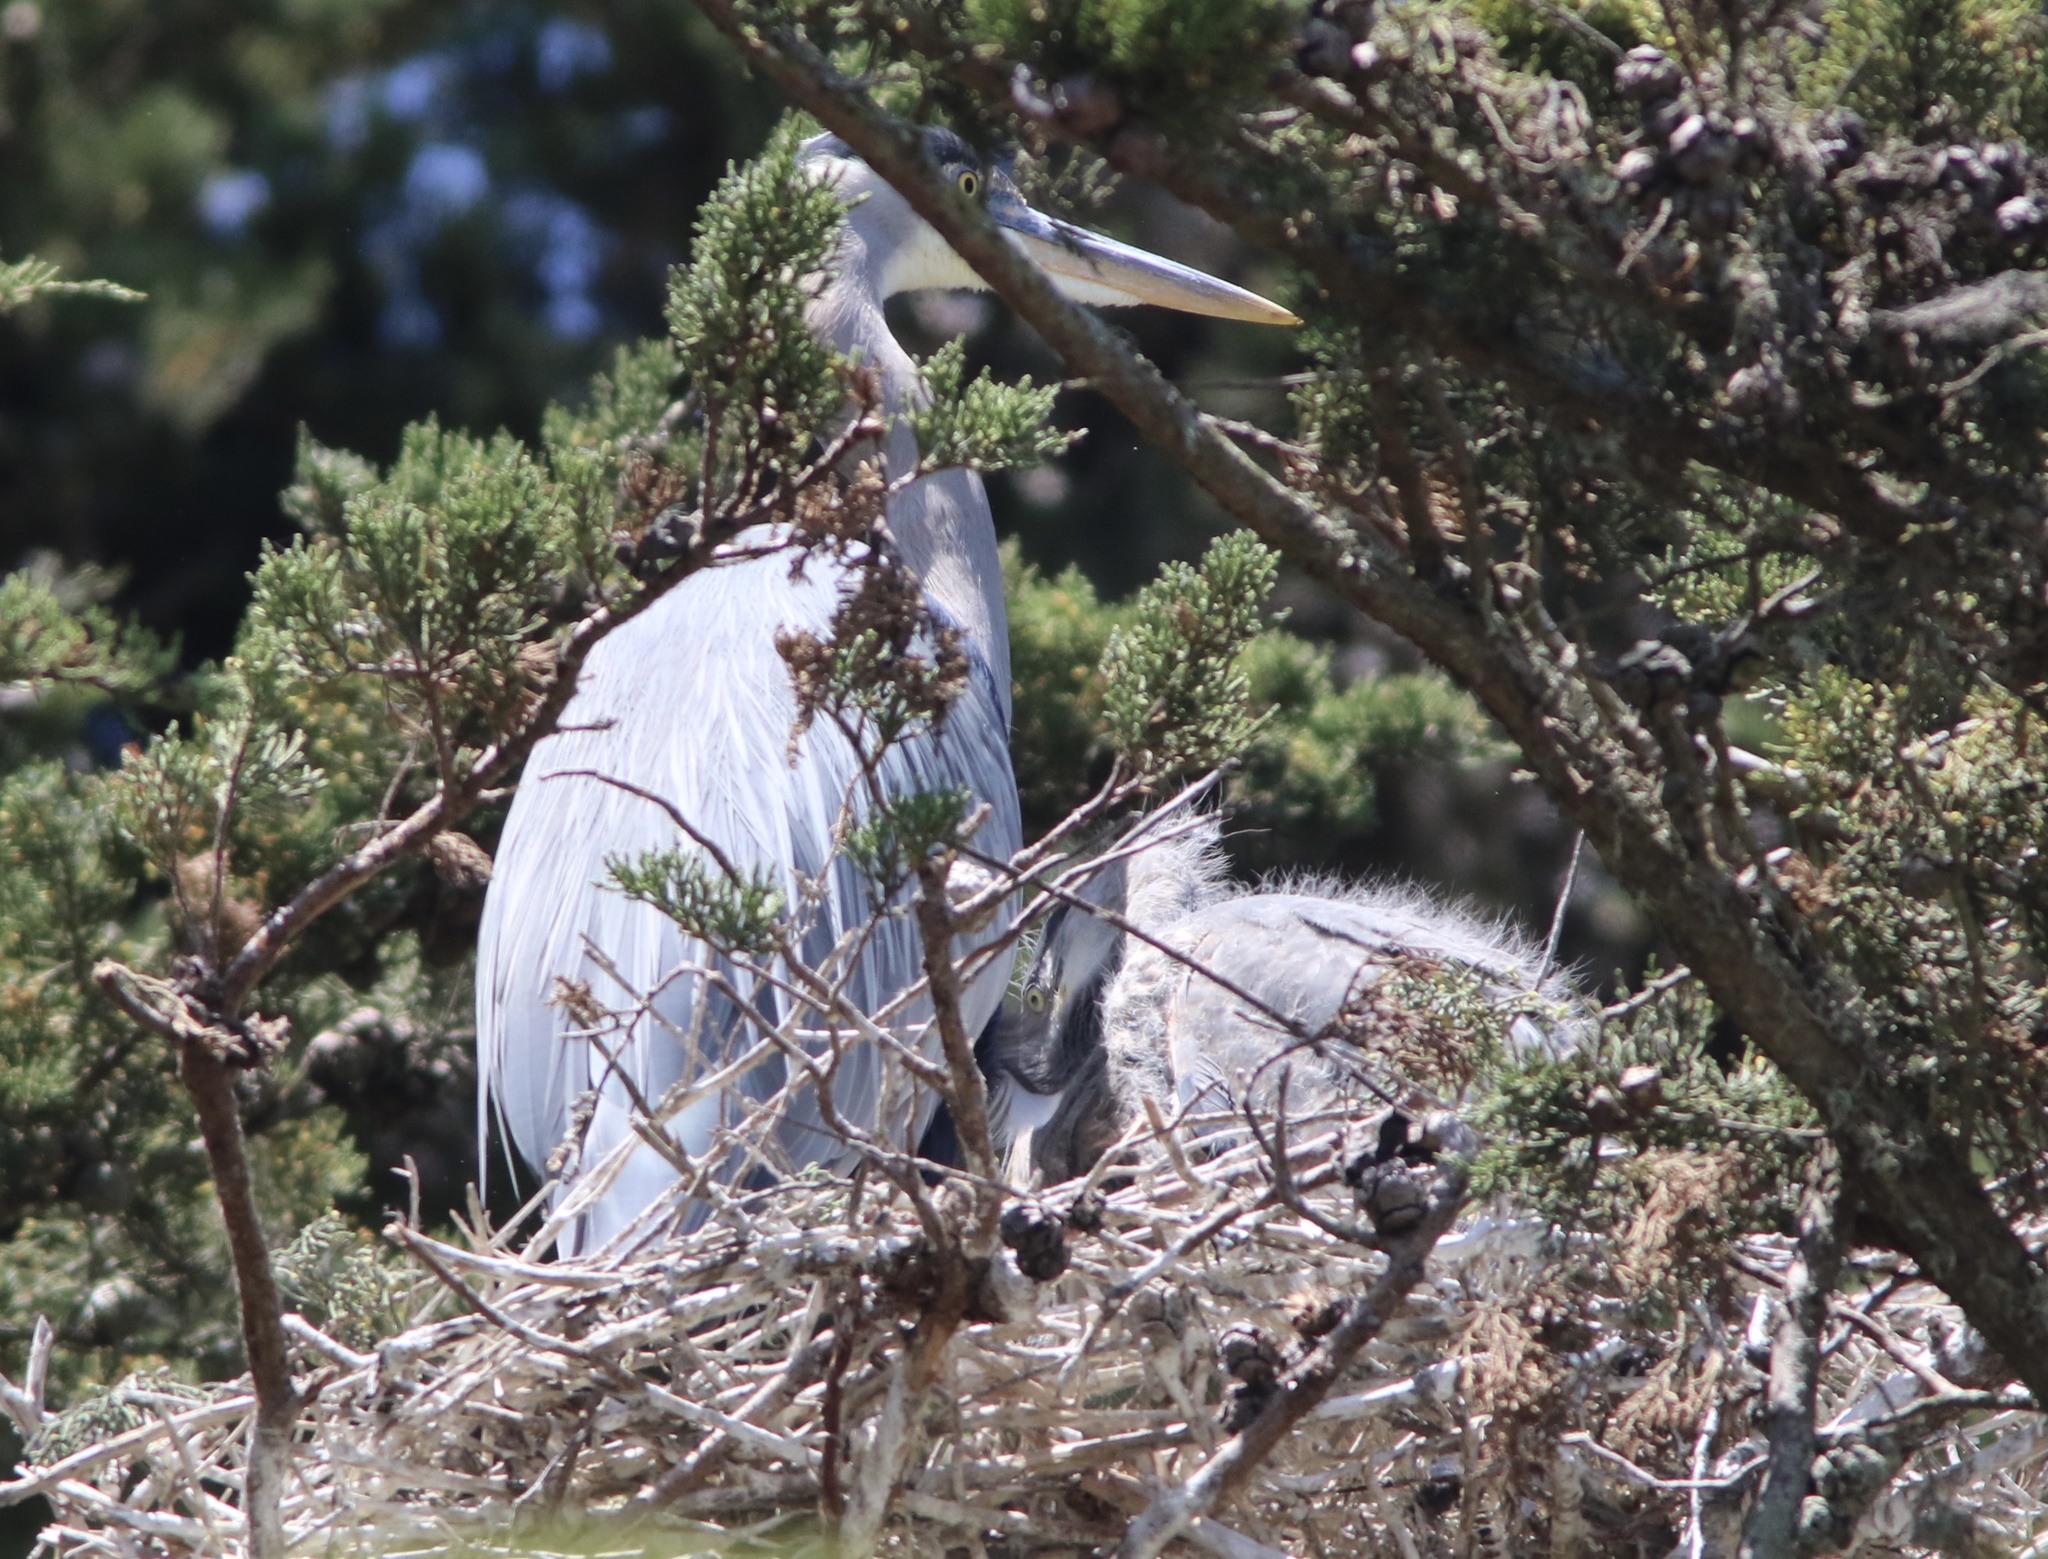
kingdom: Animalia
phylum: Chordata
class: Aves
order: Pelecaniformes
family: Ardeidae
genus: Ardea
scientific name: Ardea herodias
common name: Great blue heron
